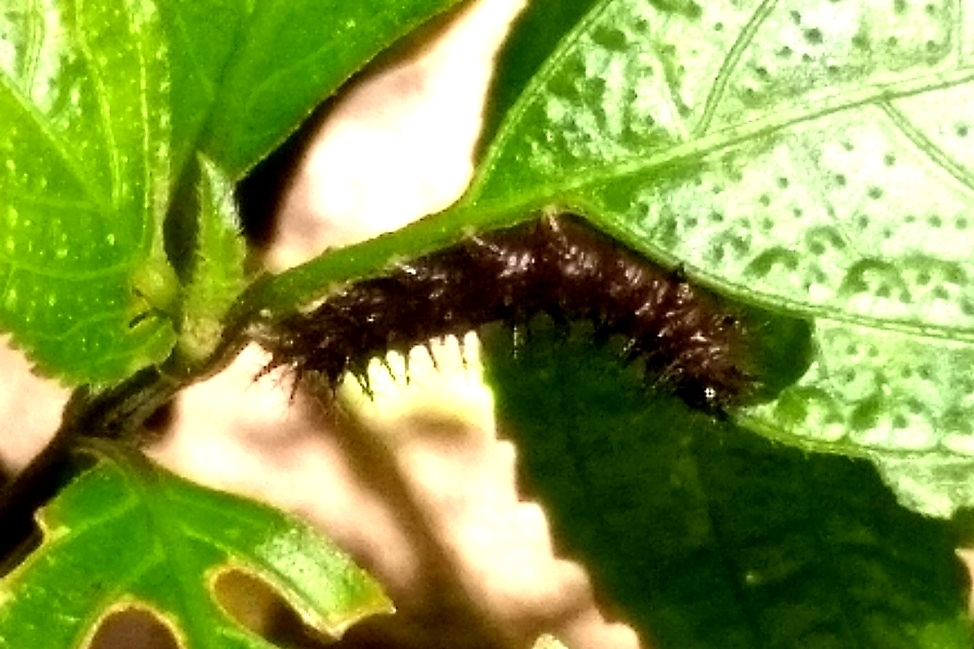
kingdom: Animalia
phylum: Arthropoda
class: Insecta
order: Lepidoptera
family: Nymphalidae
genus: Junonia
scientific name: Junonia iphita
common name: Chocolate pansy
